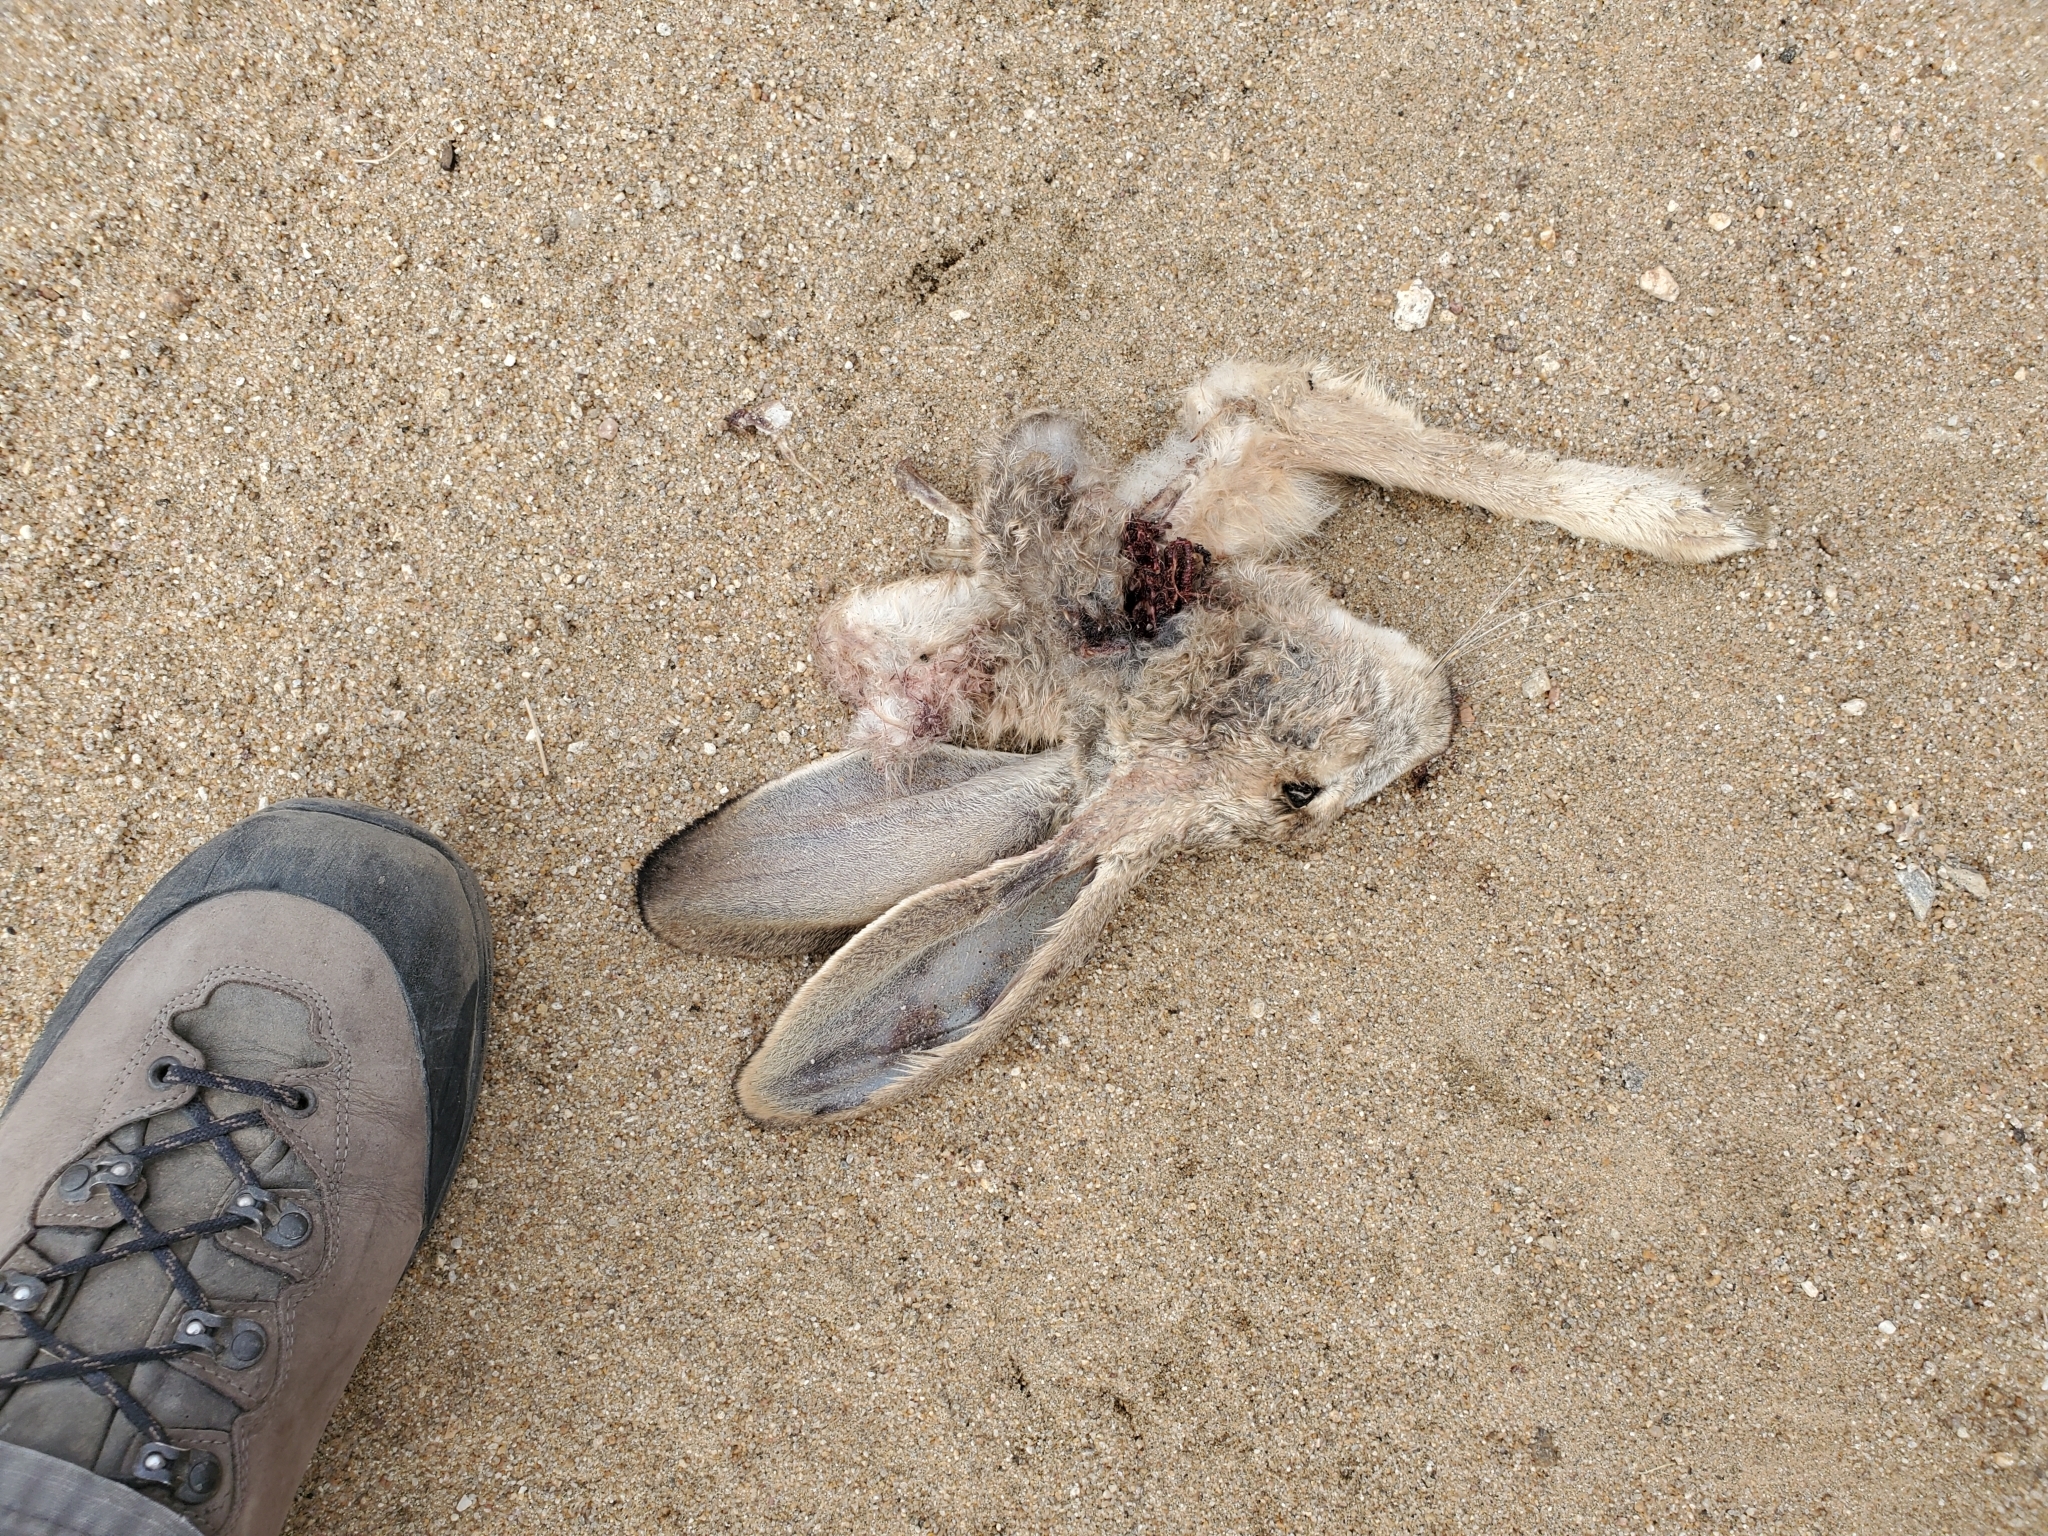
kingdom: Animalia
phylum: Chordata
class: Mammalia
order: Lagomorpha
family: Leporidae
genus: Lepus
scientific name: Lepus californicus
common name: Black-tailed jackrabbit
